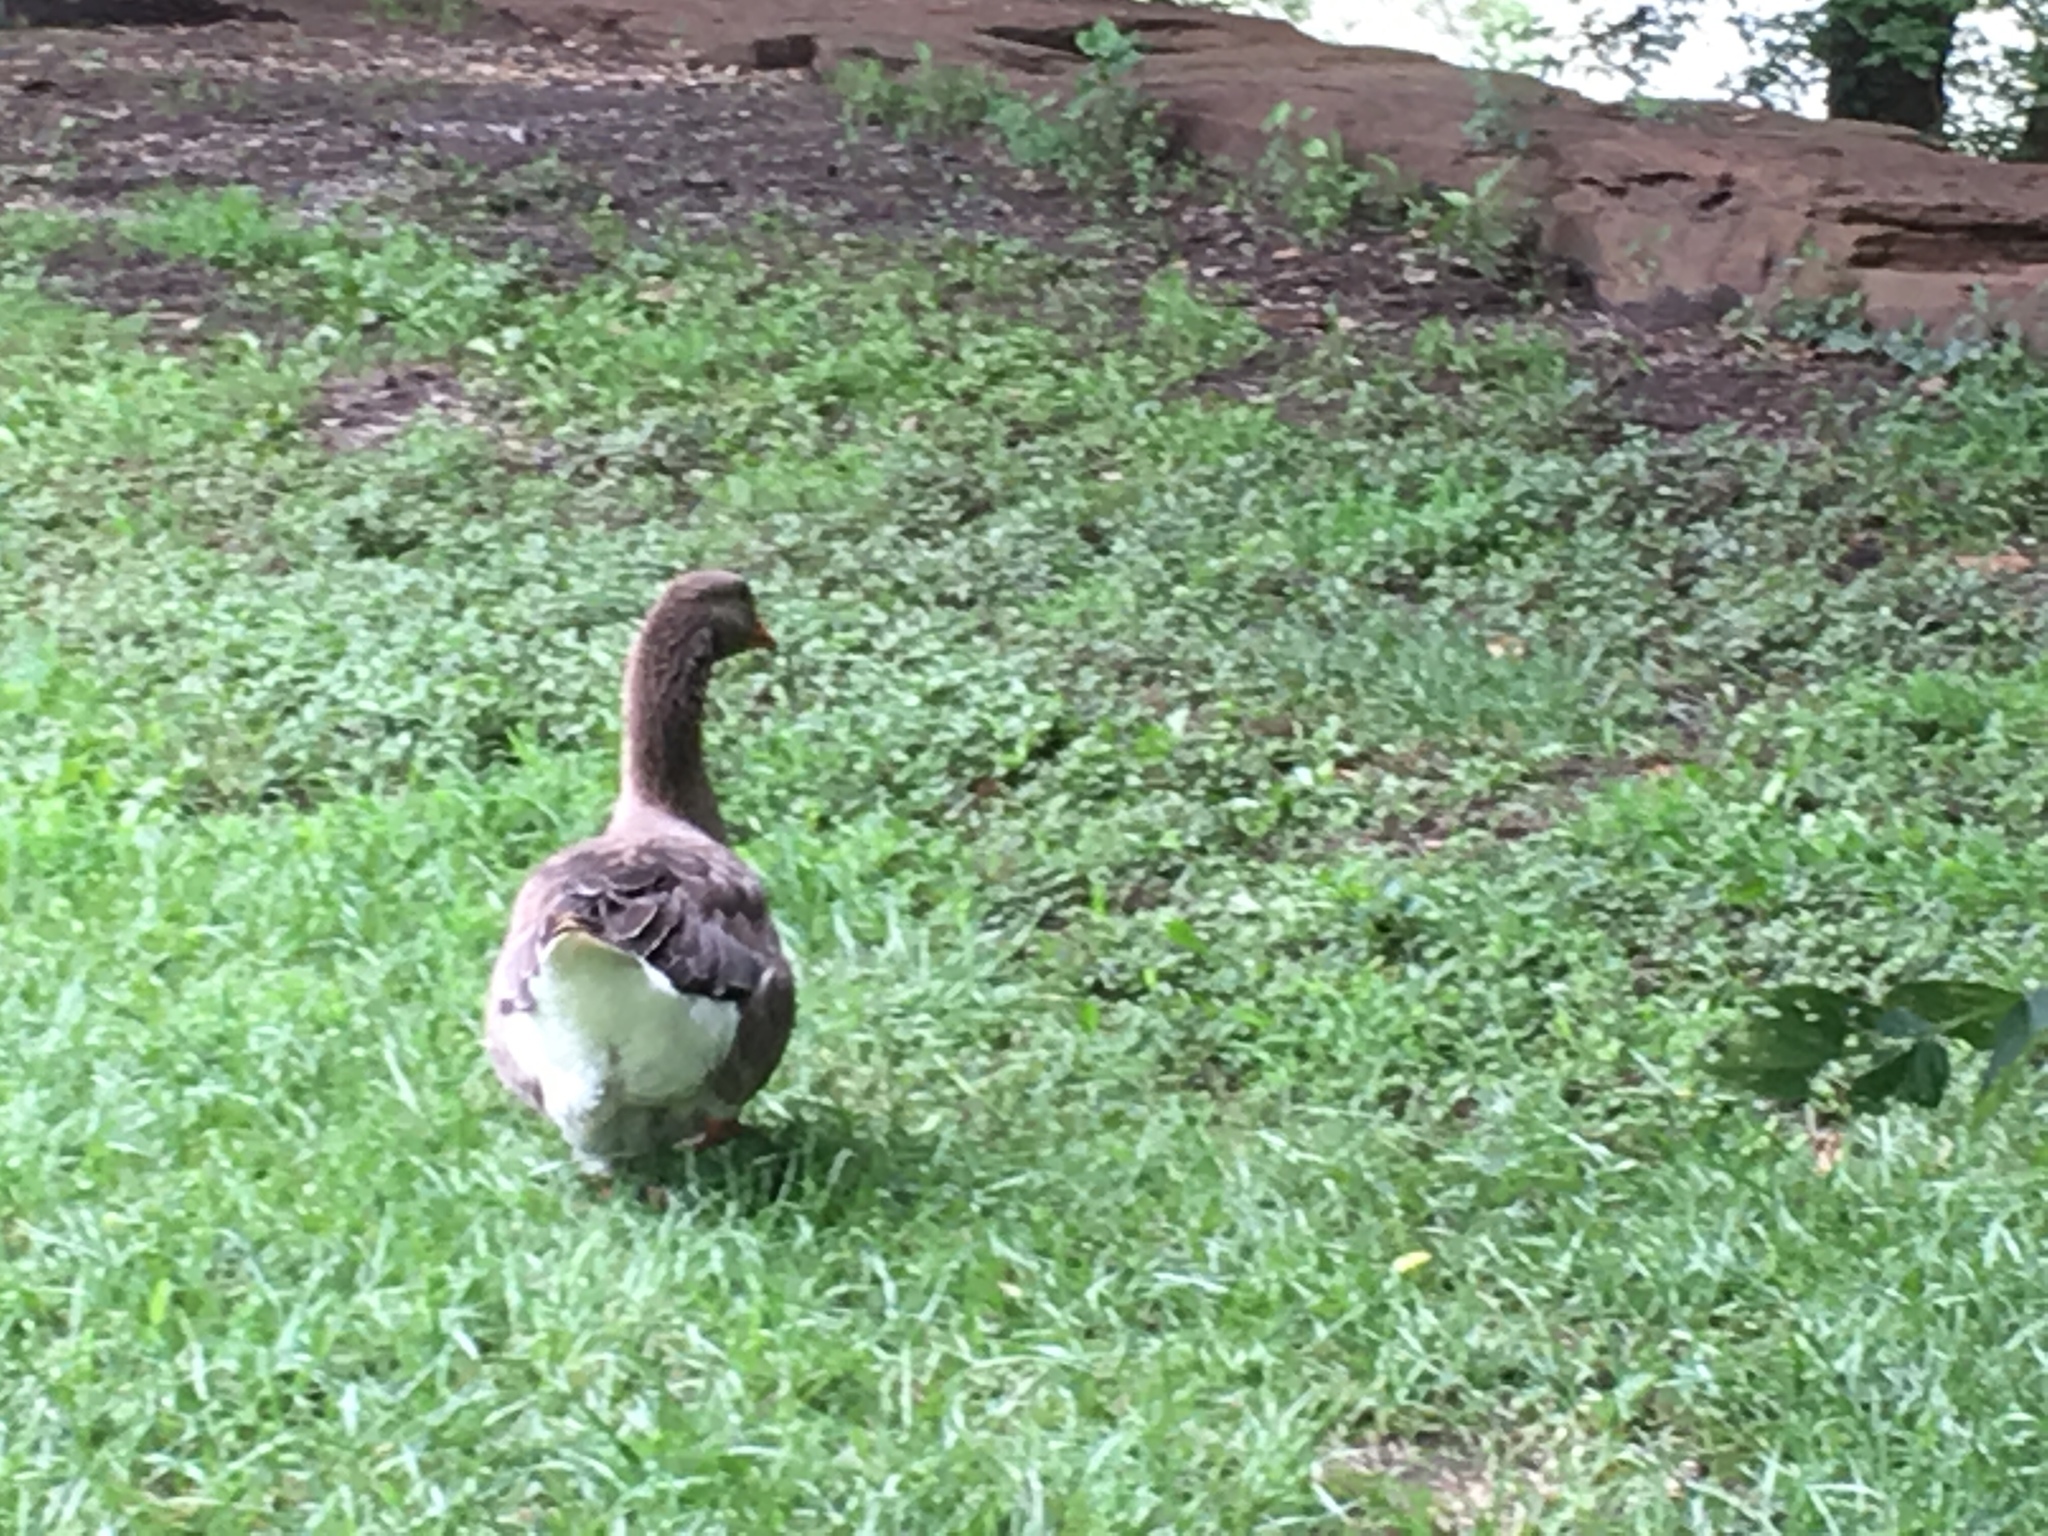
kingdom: Animalia
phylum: Chordata
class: Aves
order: Anseriformes
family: Anatidae
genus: Anser
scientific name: Anser anser
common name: Greylag goose
